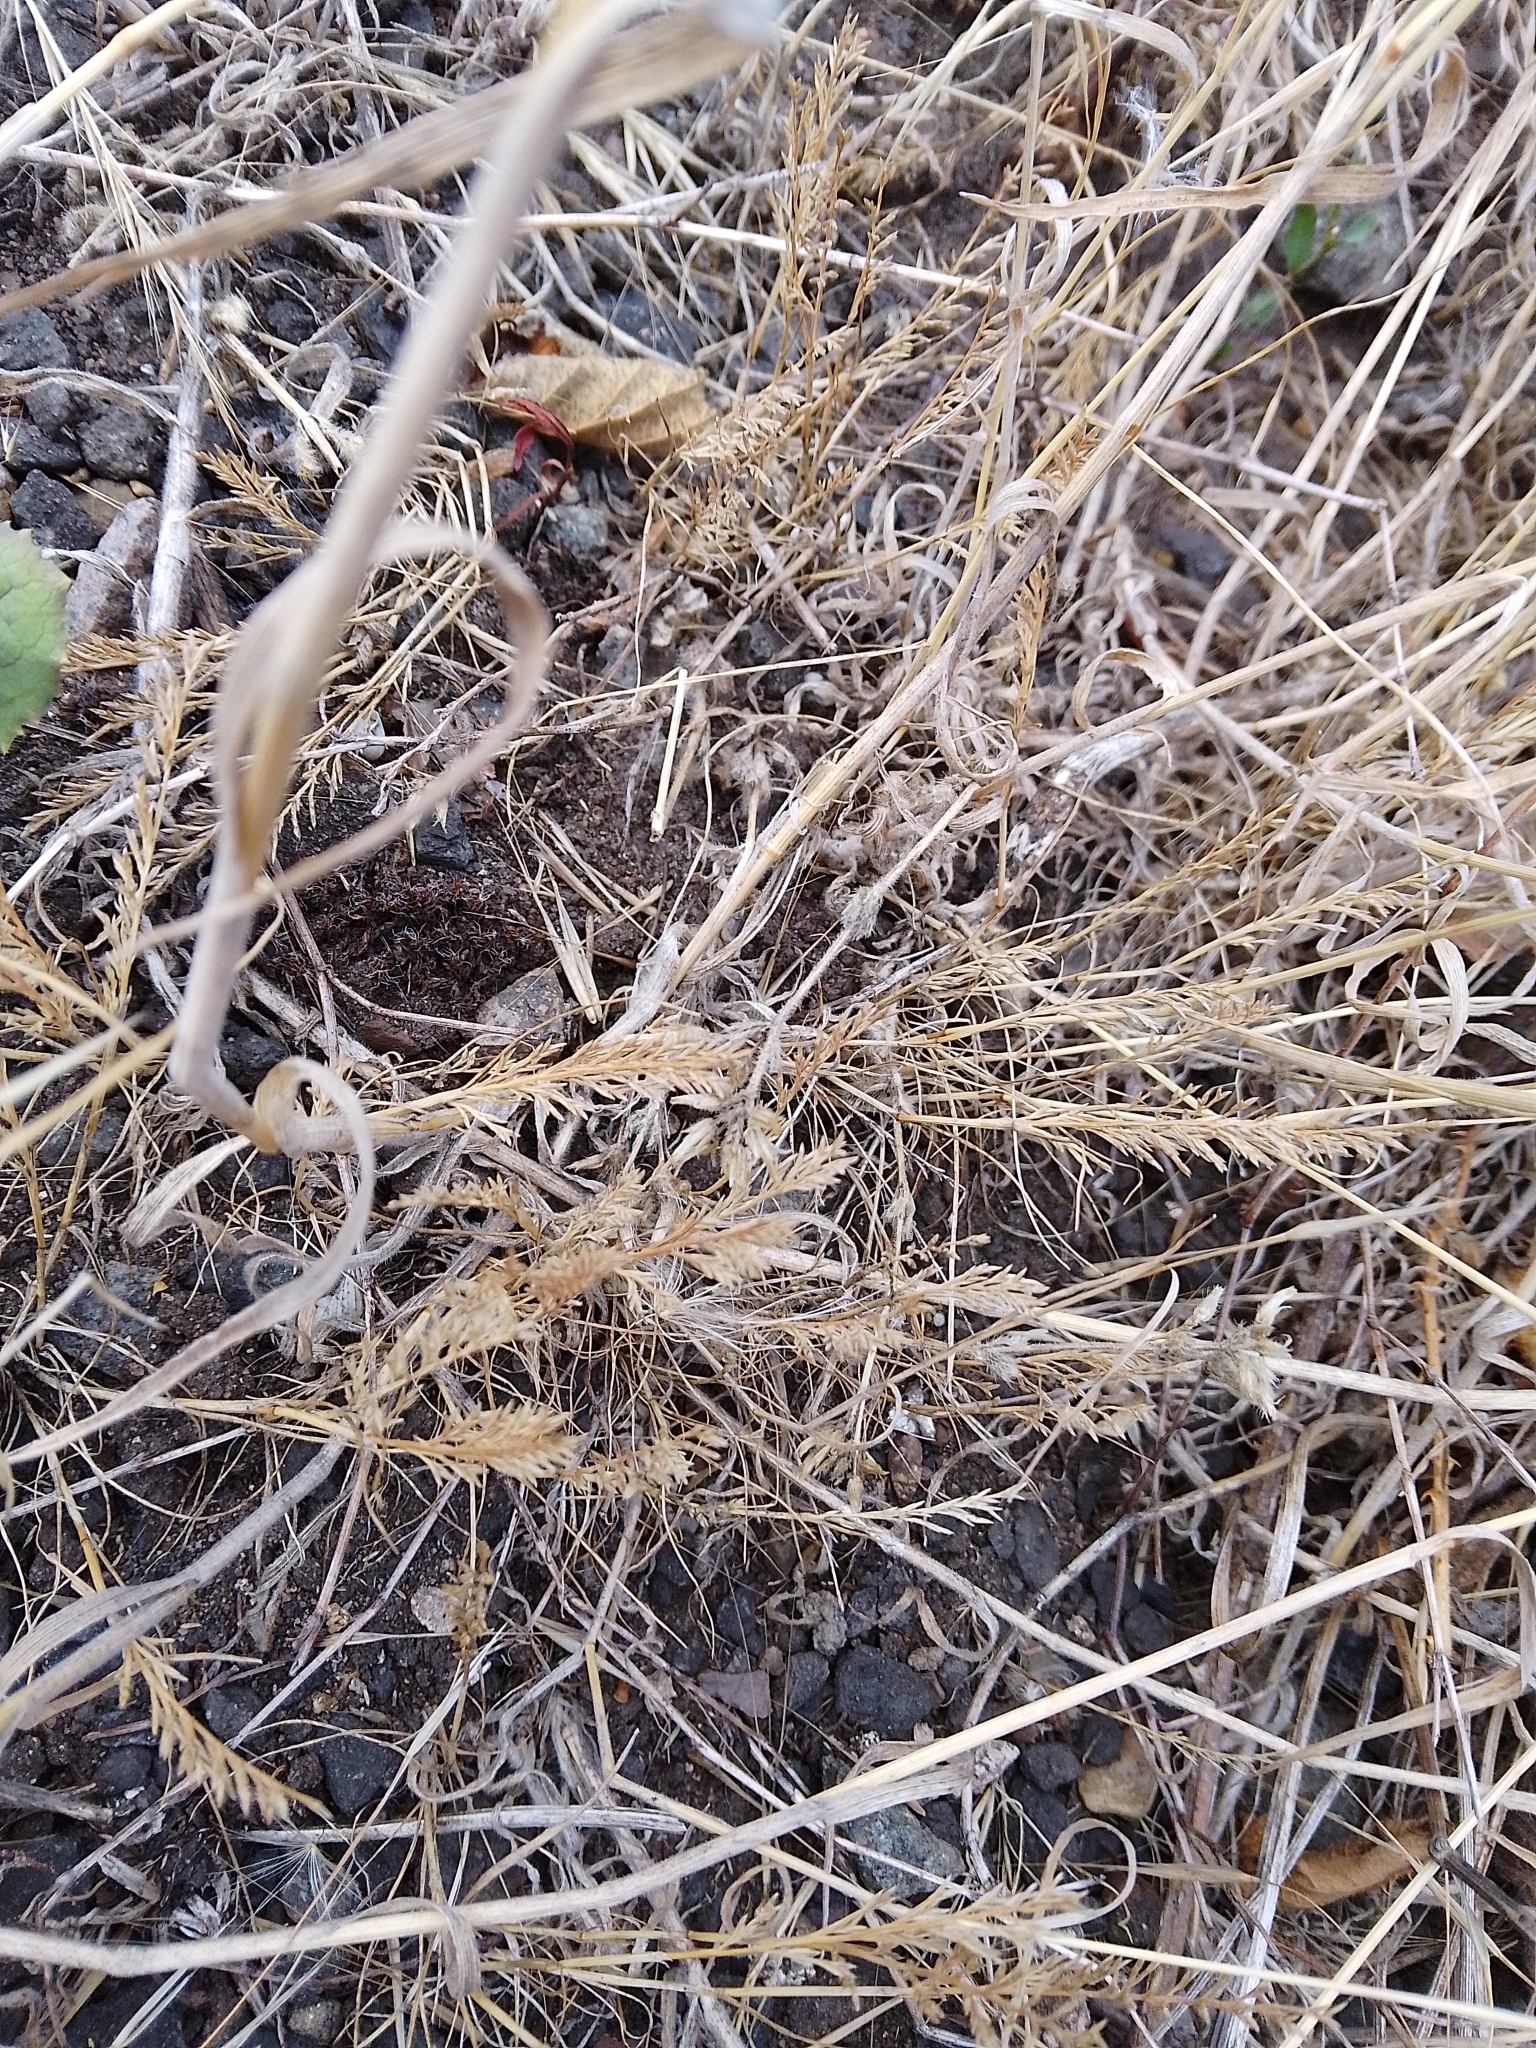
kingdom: Plantae
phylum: Tracheophyta
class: Liliopsida
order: Poales
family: Poaceae
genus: Catapodium
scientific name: Catapodium rigidum
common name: Fern-grass
